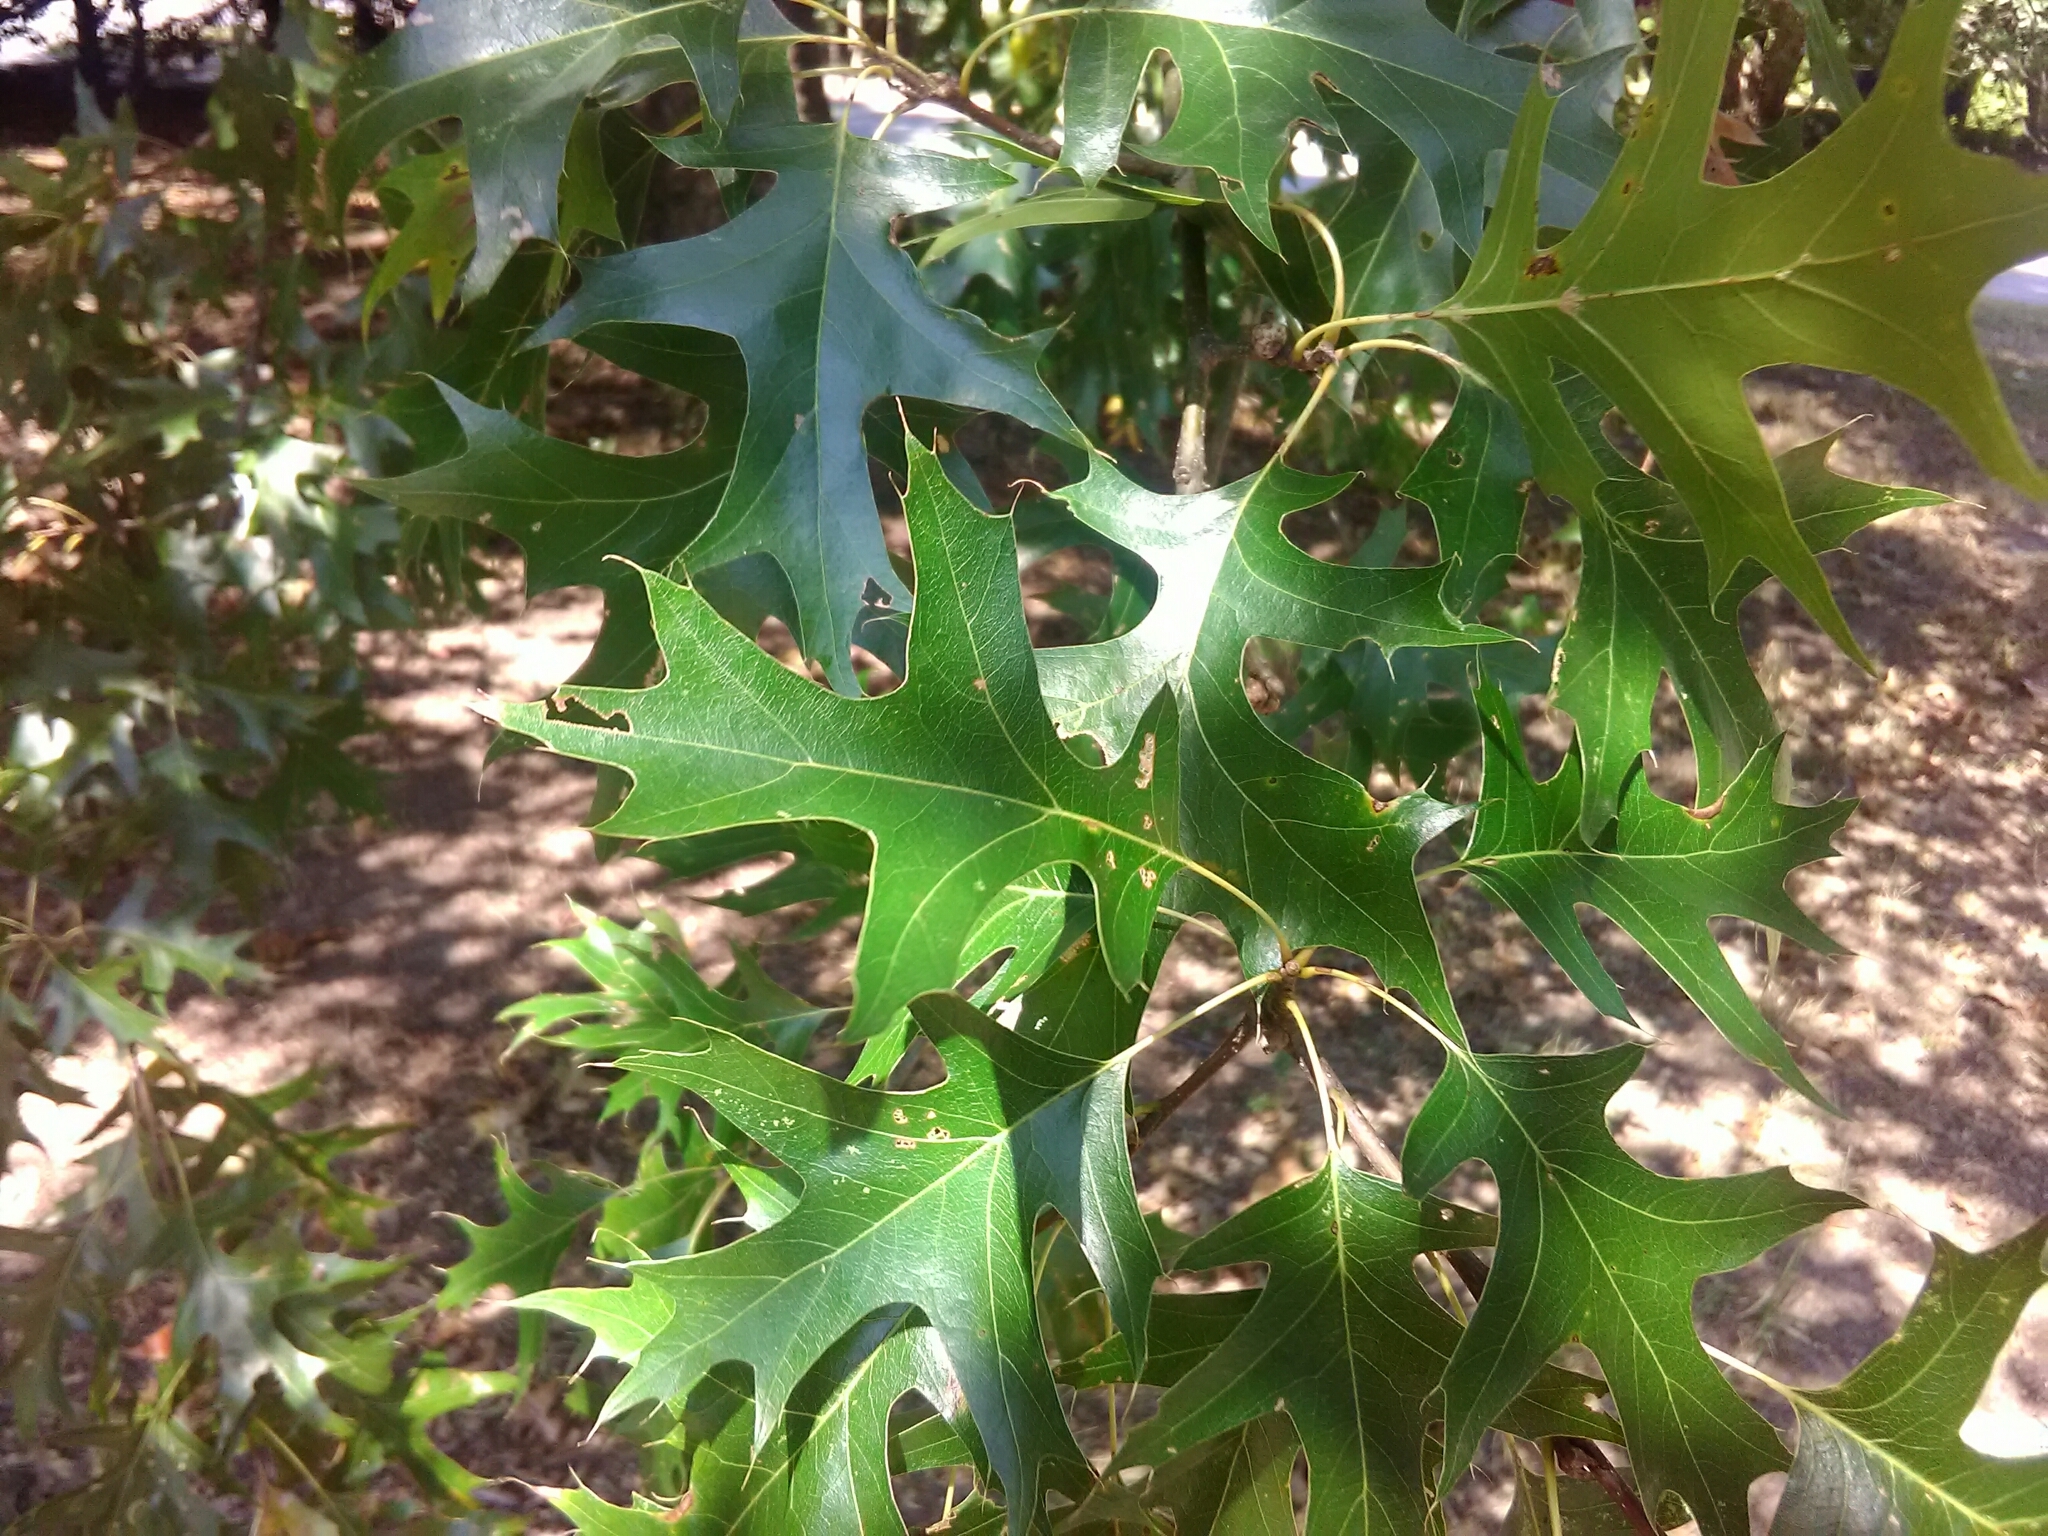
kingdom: Plantae
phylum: Tracheophyta
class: Magnoliopsida
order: Fagales
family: Fagaceae
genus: Quercus
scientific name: Quercus palustris
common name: Pin oak
